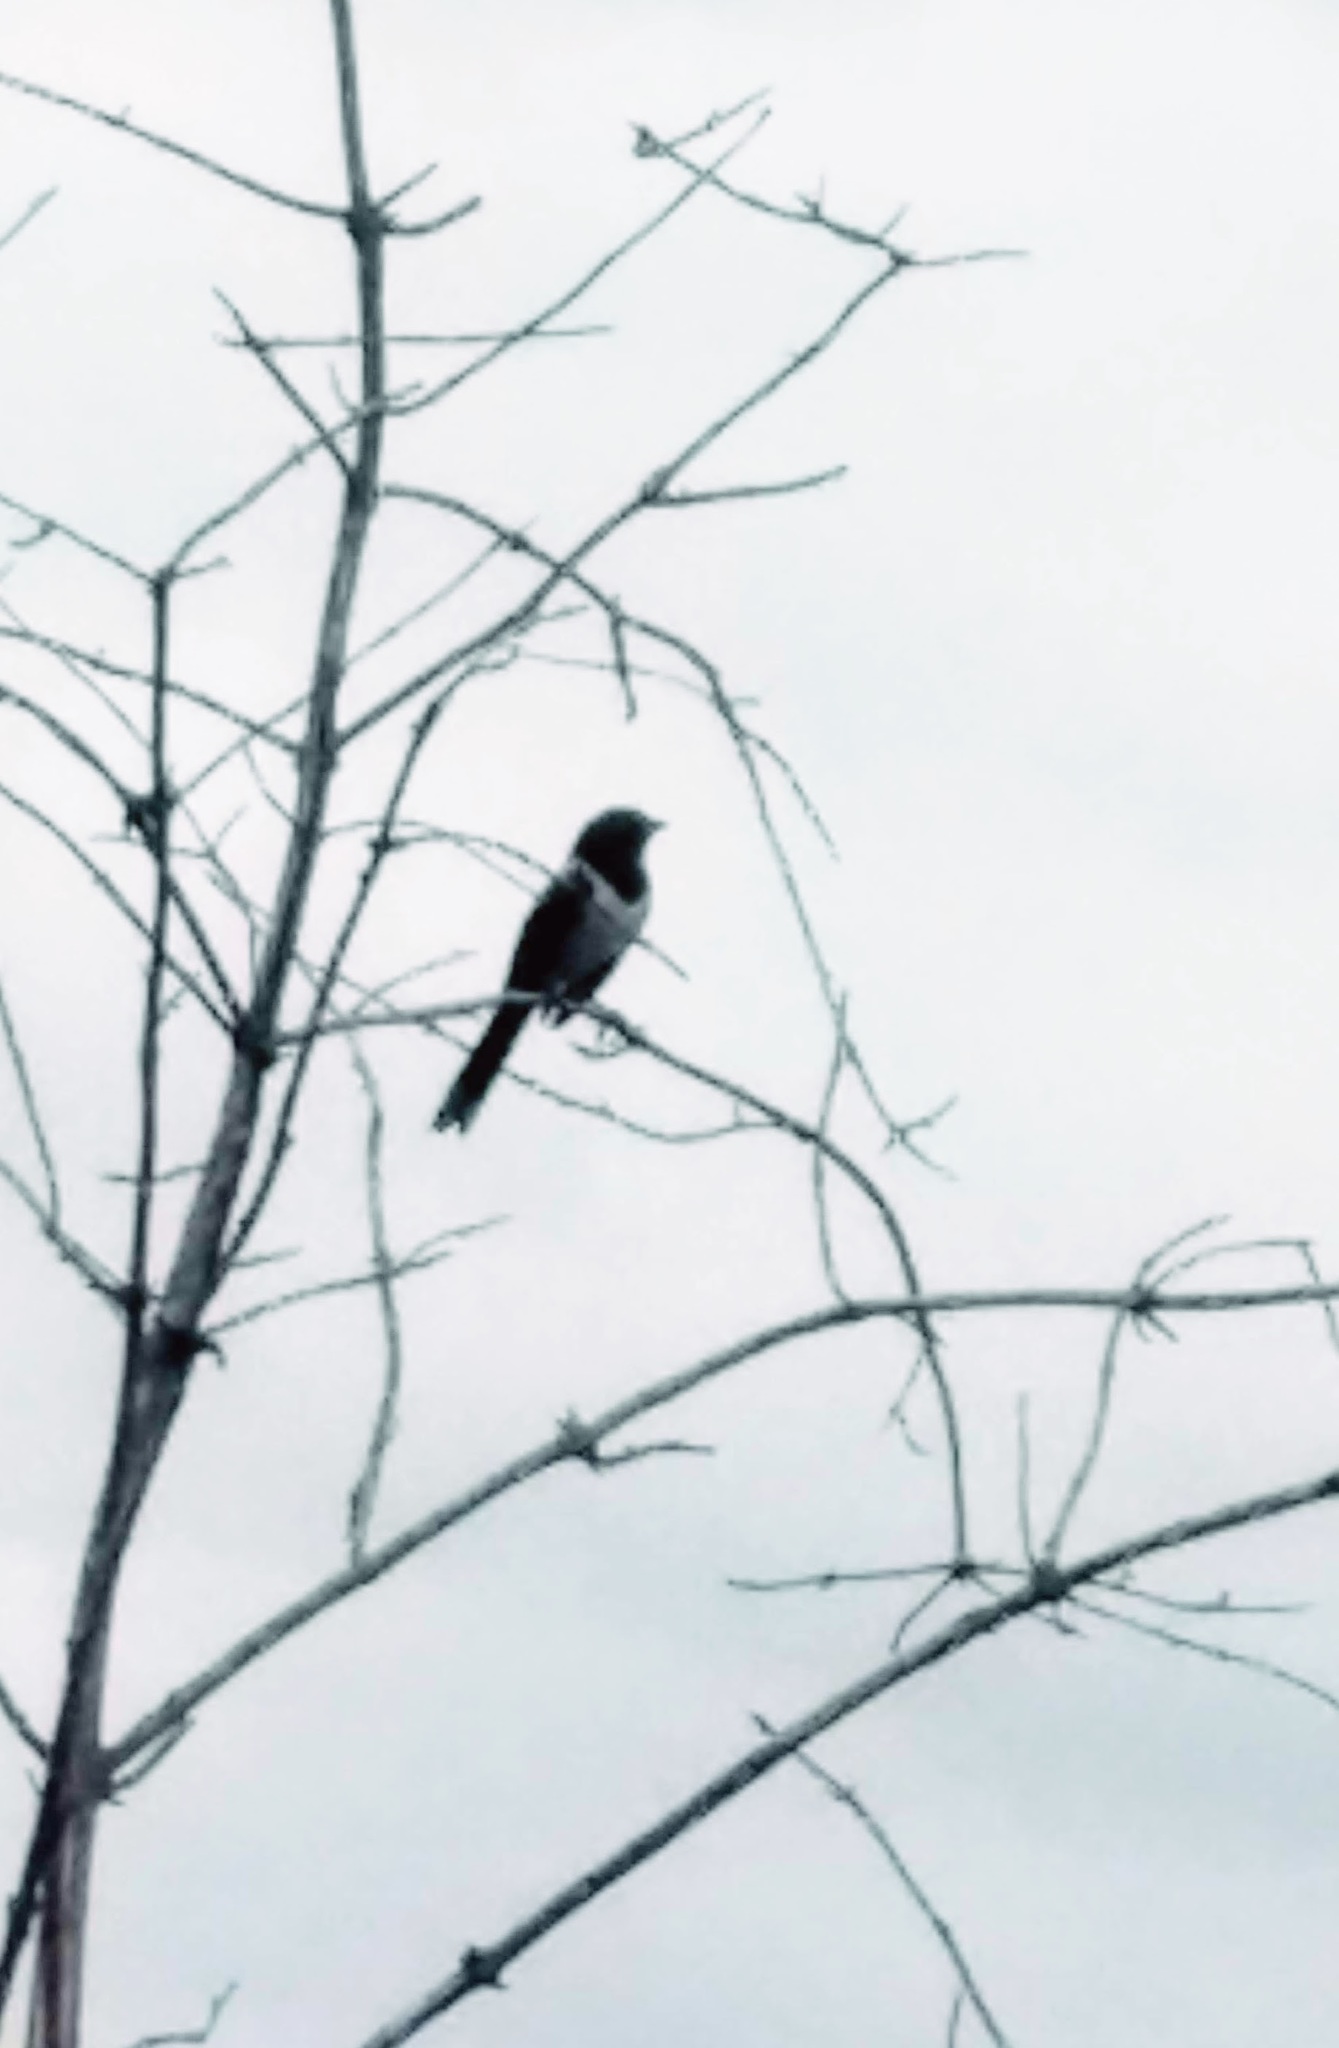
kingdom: Animalia
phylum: Chordata
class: Aves
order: Passeriformes
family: Passerellidae
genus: Pipilo
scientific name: Pipilo maculatus
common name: Spotted towhee
